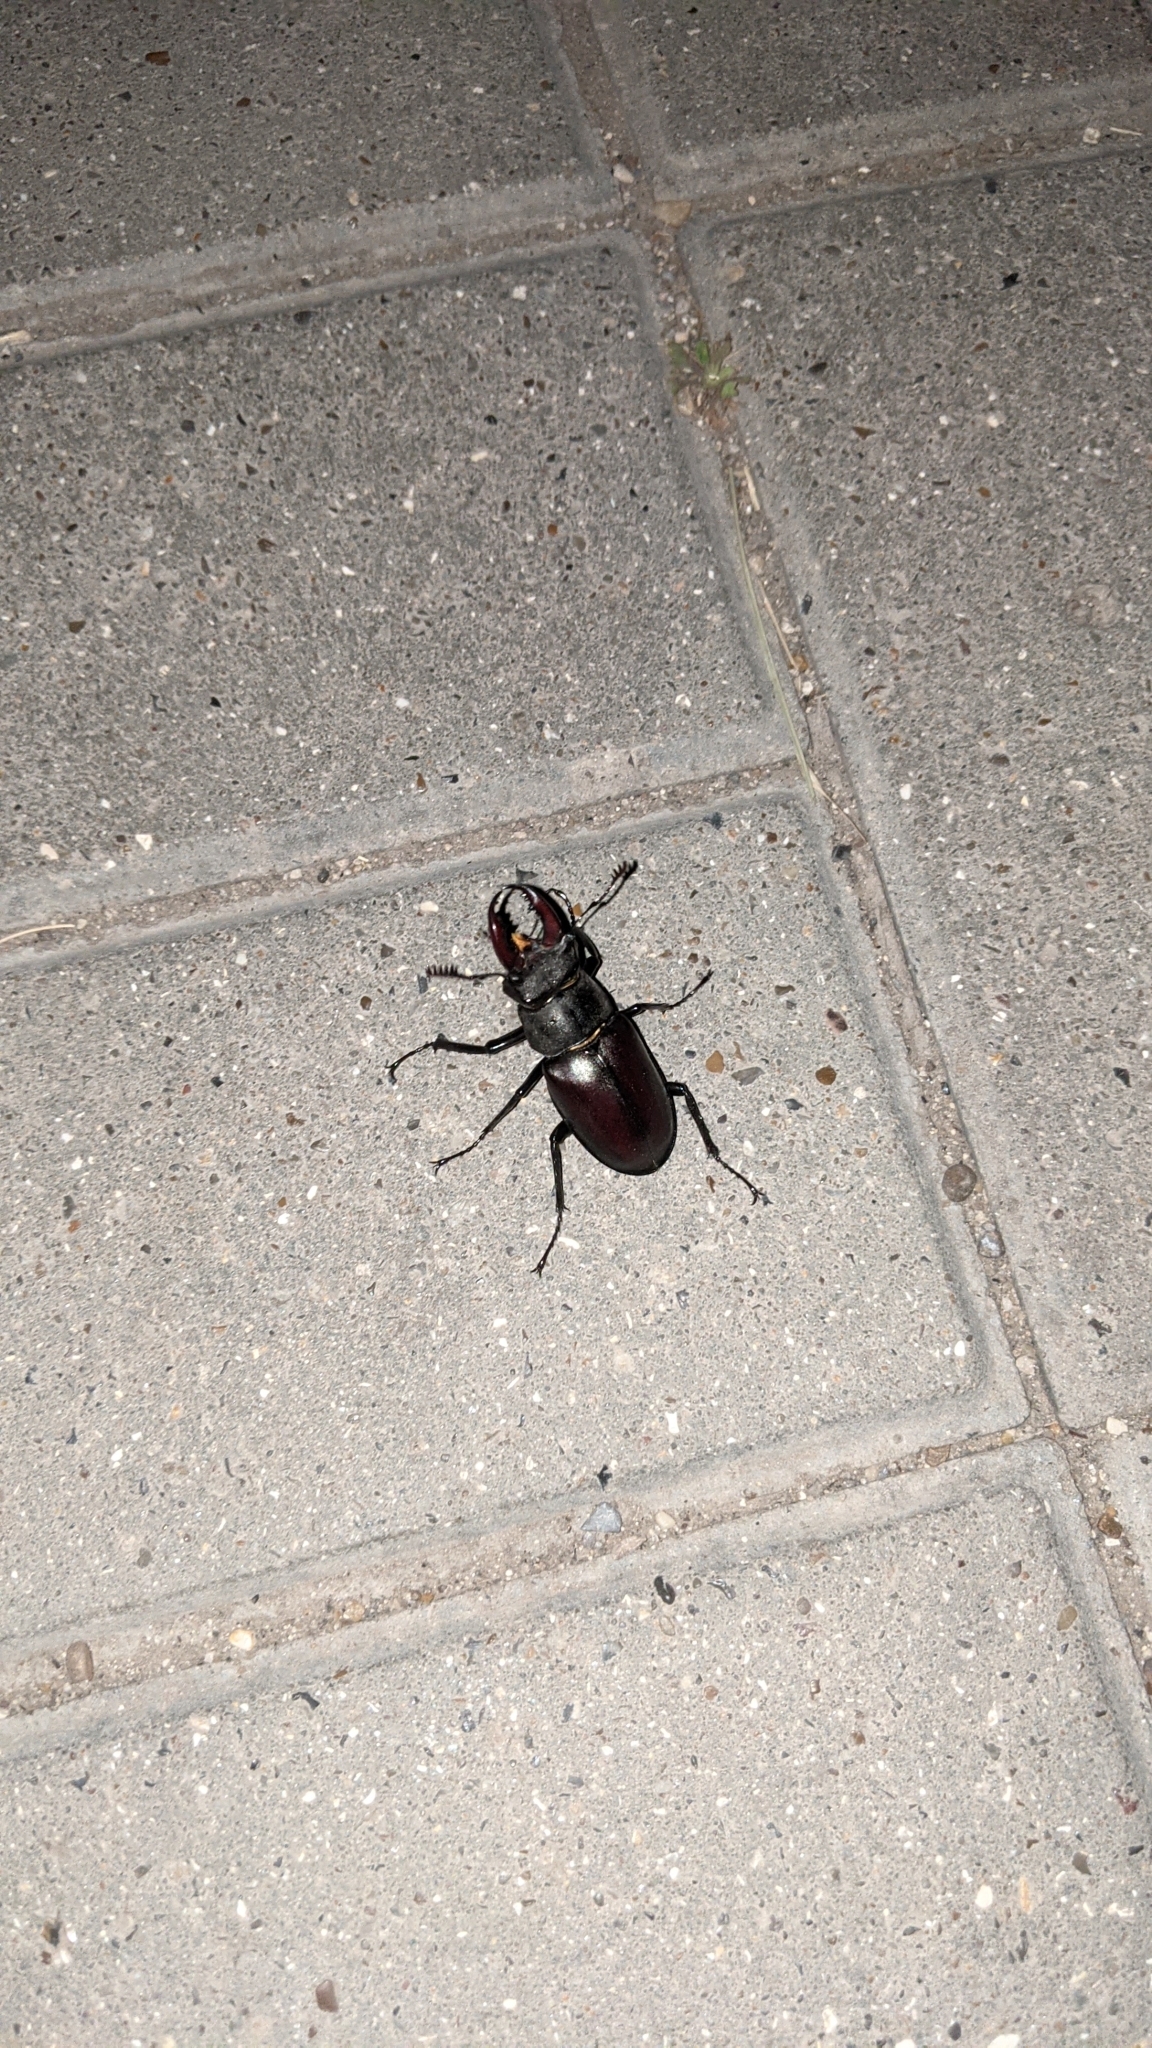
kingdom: Animalia
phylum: Arthropoda
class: Insecta
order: Coleoptera
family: Lucanidae
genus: Lucanus
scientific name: Lucanus cervus
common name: Stag beetle
